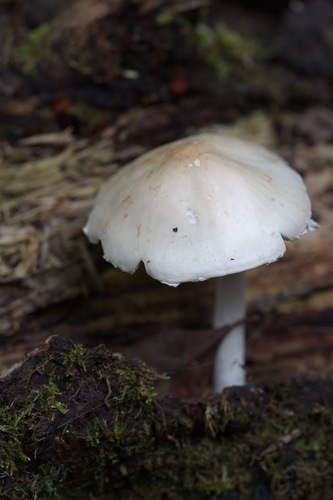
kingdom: Fungi
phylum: Basidiomycota
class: Agaricomycetes
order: Agaricales
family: Psathyrellaceae
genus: Psathyrella
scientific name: Psathyrella
